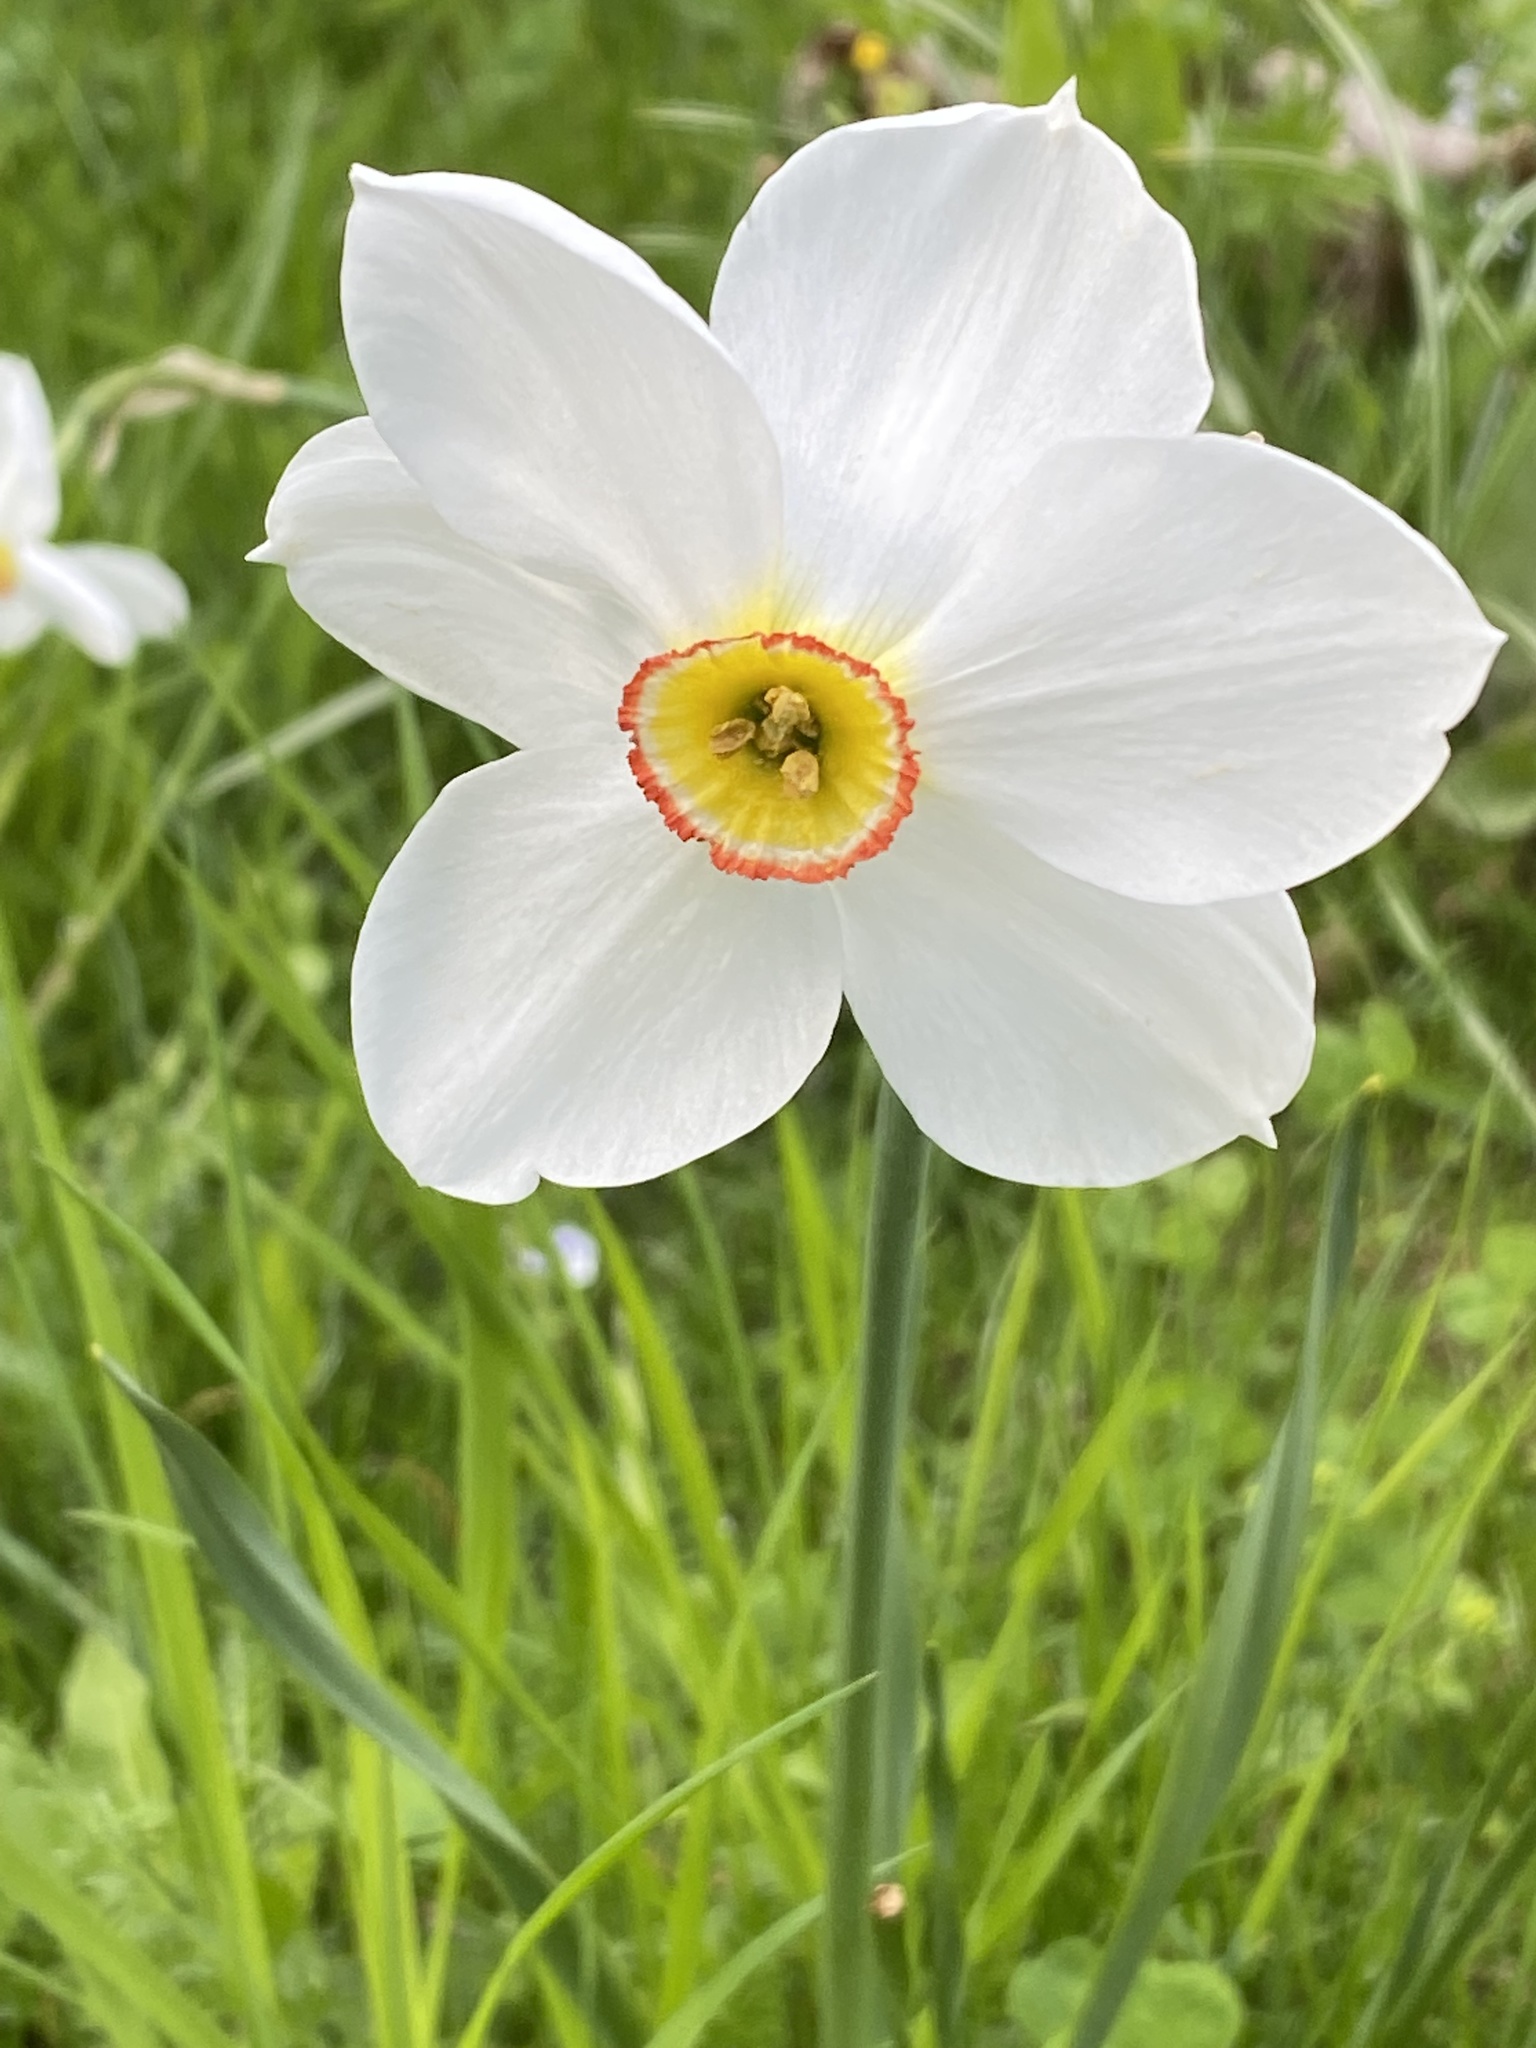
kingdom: Plantae
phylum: Tracheophyta
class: Liliopsida
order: Asparagales
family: Amaryllidaceae
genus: Narcissus
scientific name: Narcissus poeticus
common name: Pheasant's-eye daffodil
